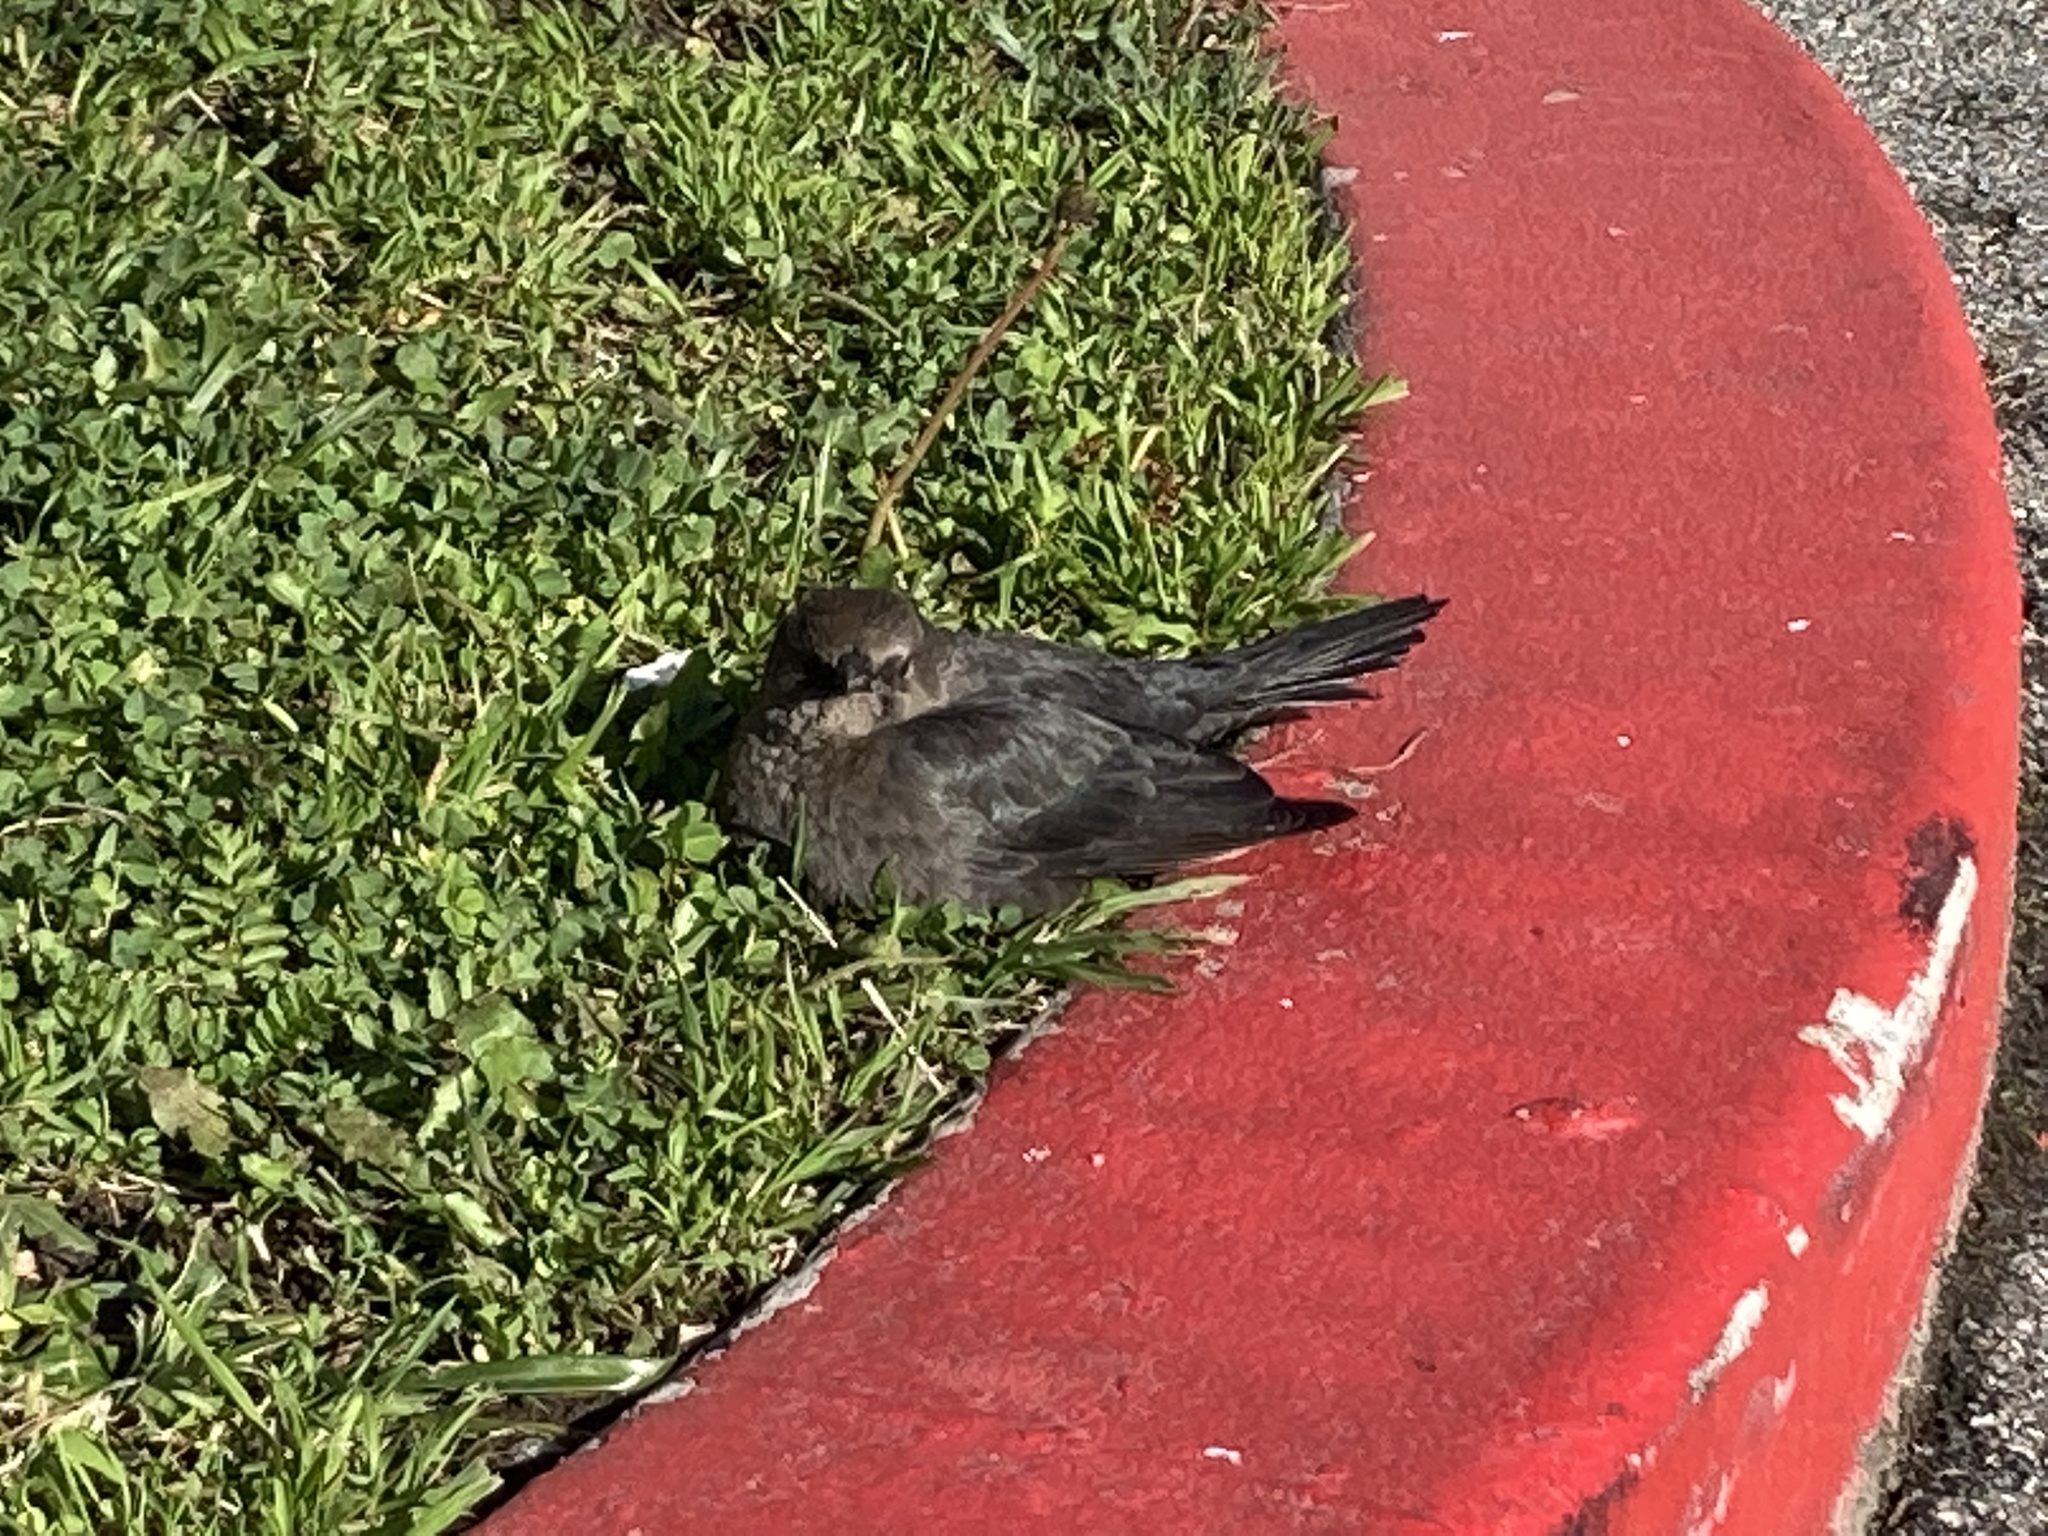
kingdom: Animalia
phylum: Chordata
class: Aves
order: Passeriformes
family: Icteridae
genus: Euphagus
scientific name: Euphagus cyanocephalus
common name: Brewer's blackbird
